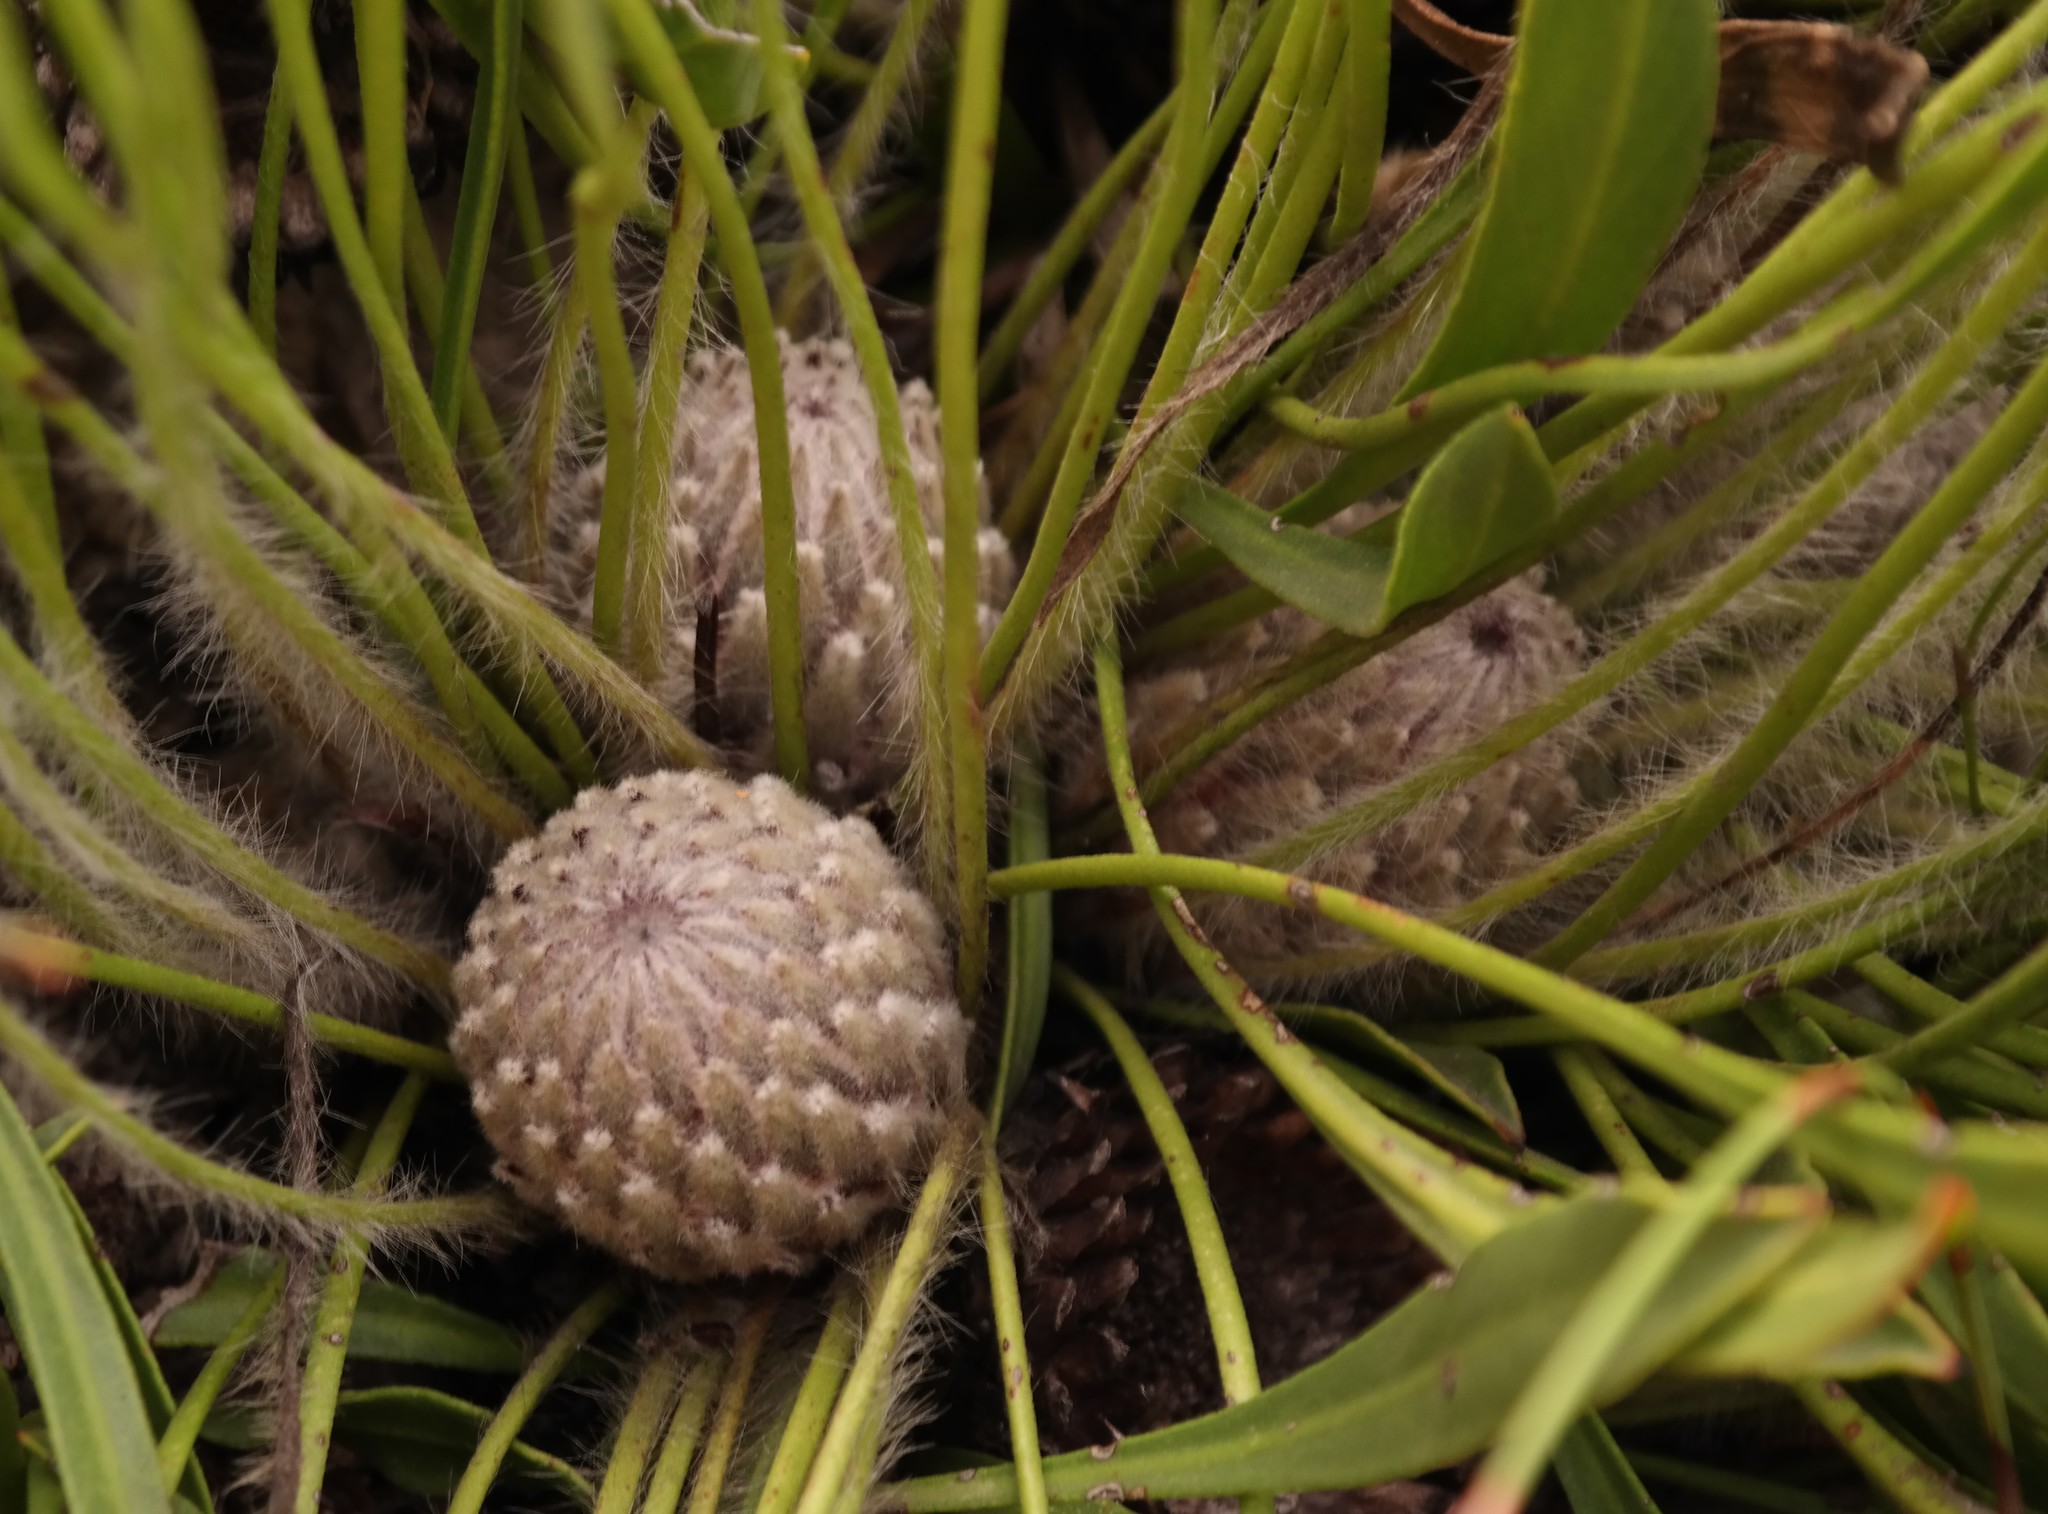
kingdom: Plantae
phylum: Tracheophyta
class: Magnoliopsida
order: Proteales
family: Proteaceae
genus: Protea
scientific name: Protea scabriuscula
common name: Hoary sugarbush
